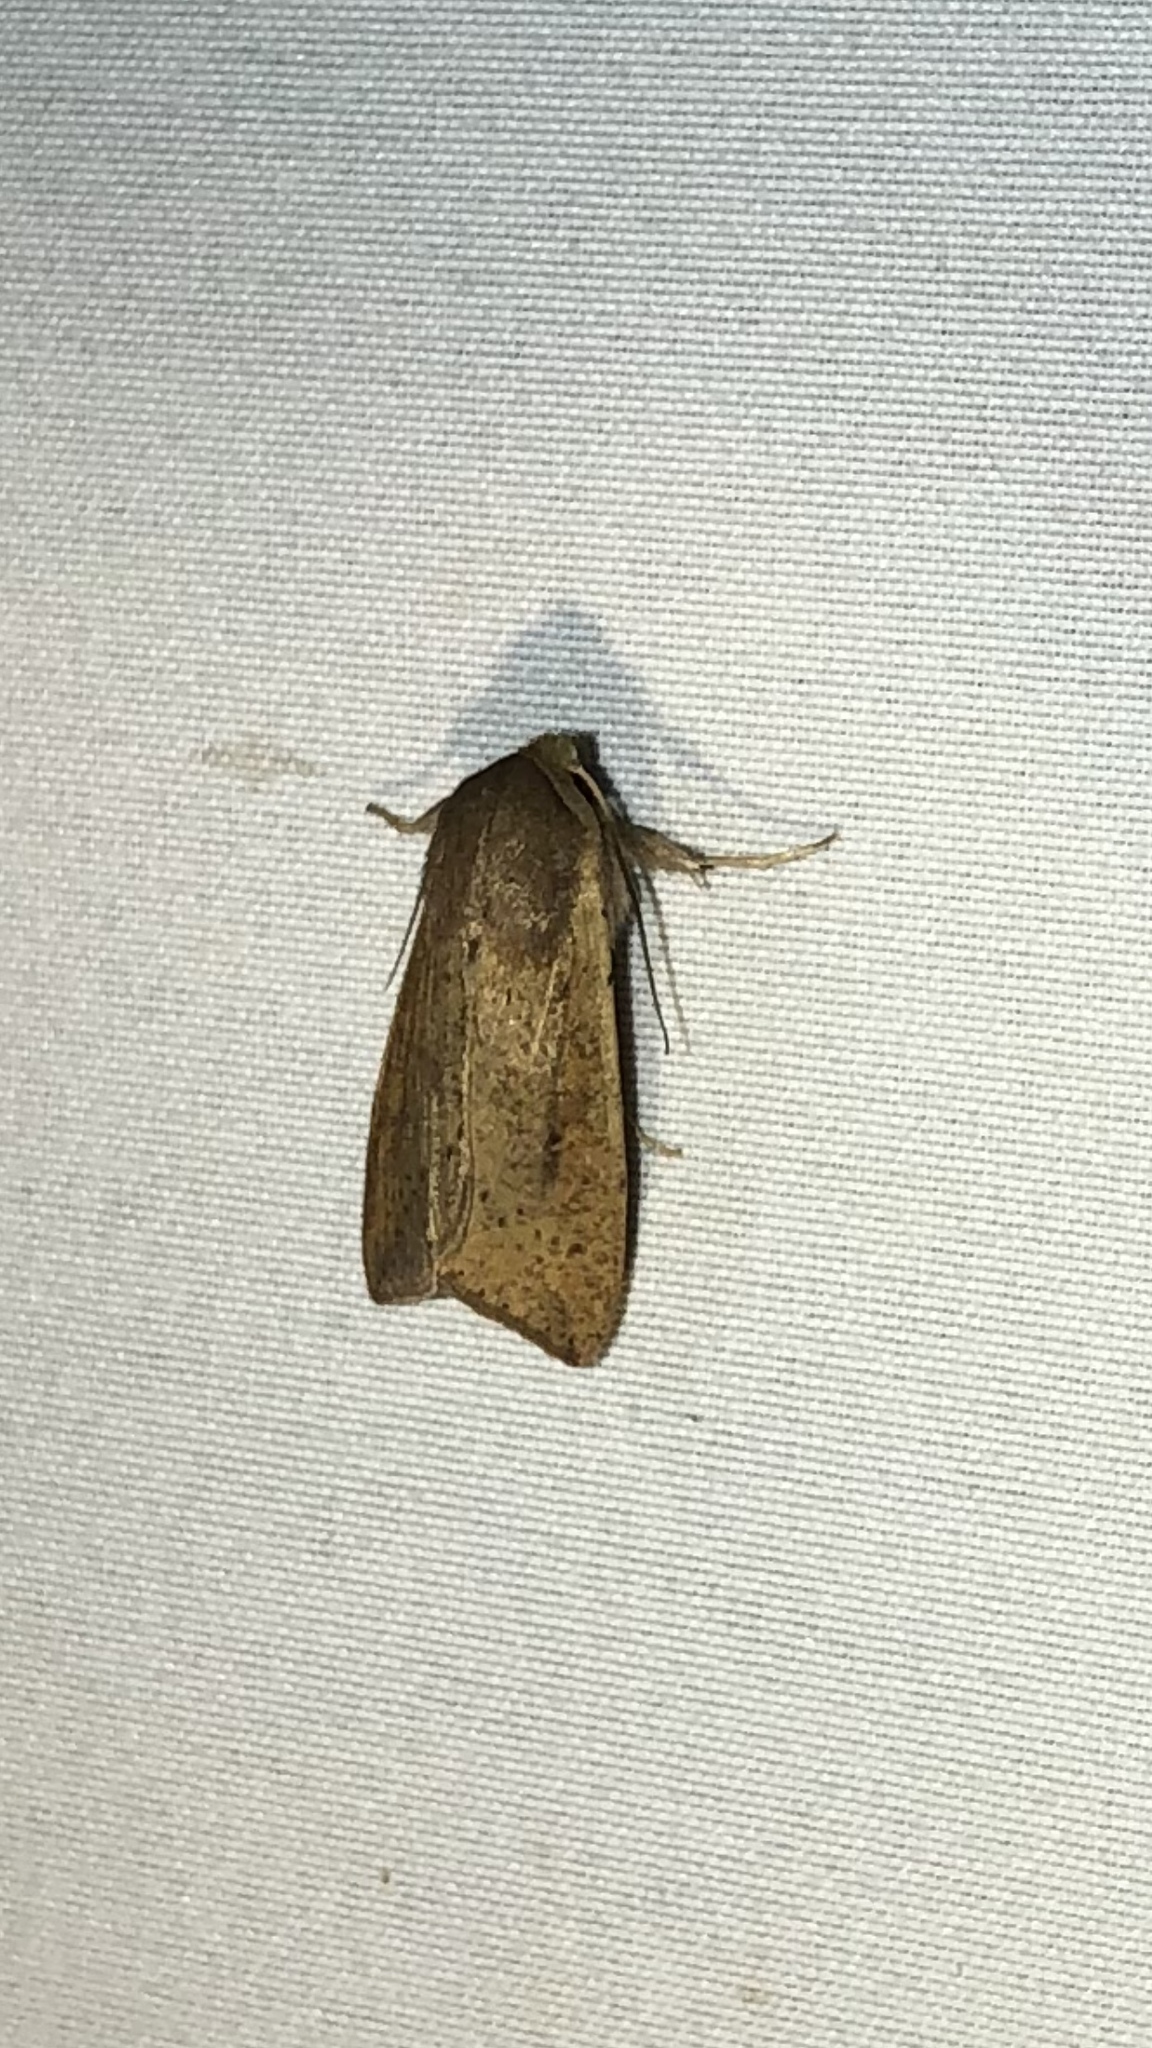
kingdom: Animalia
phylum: Arthropoda
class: Insecta
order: Lepidoptera
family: Noctuidae
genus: Mythimna
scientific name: Mythimna unipuncta
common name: White-speck
